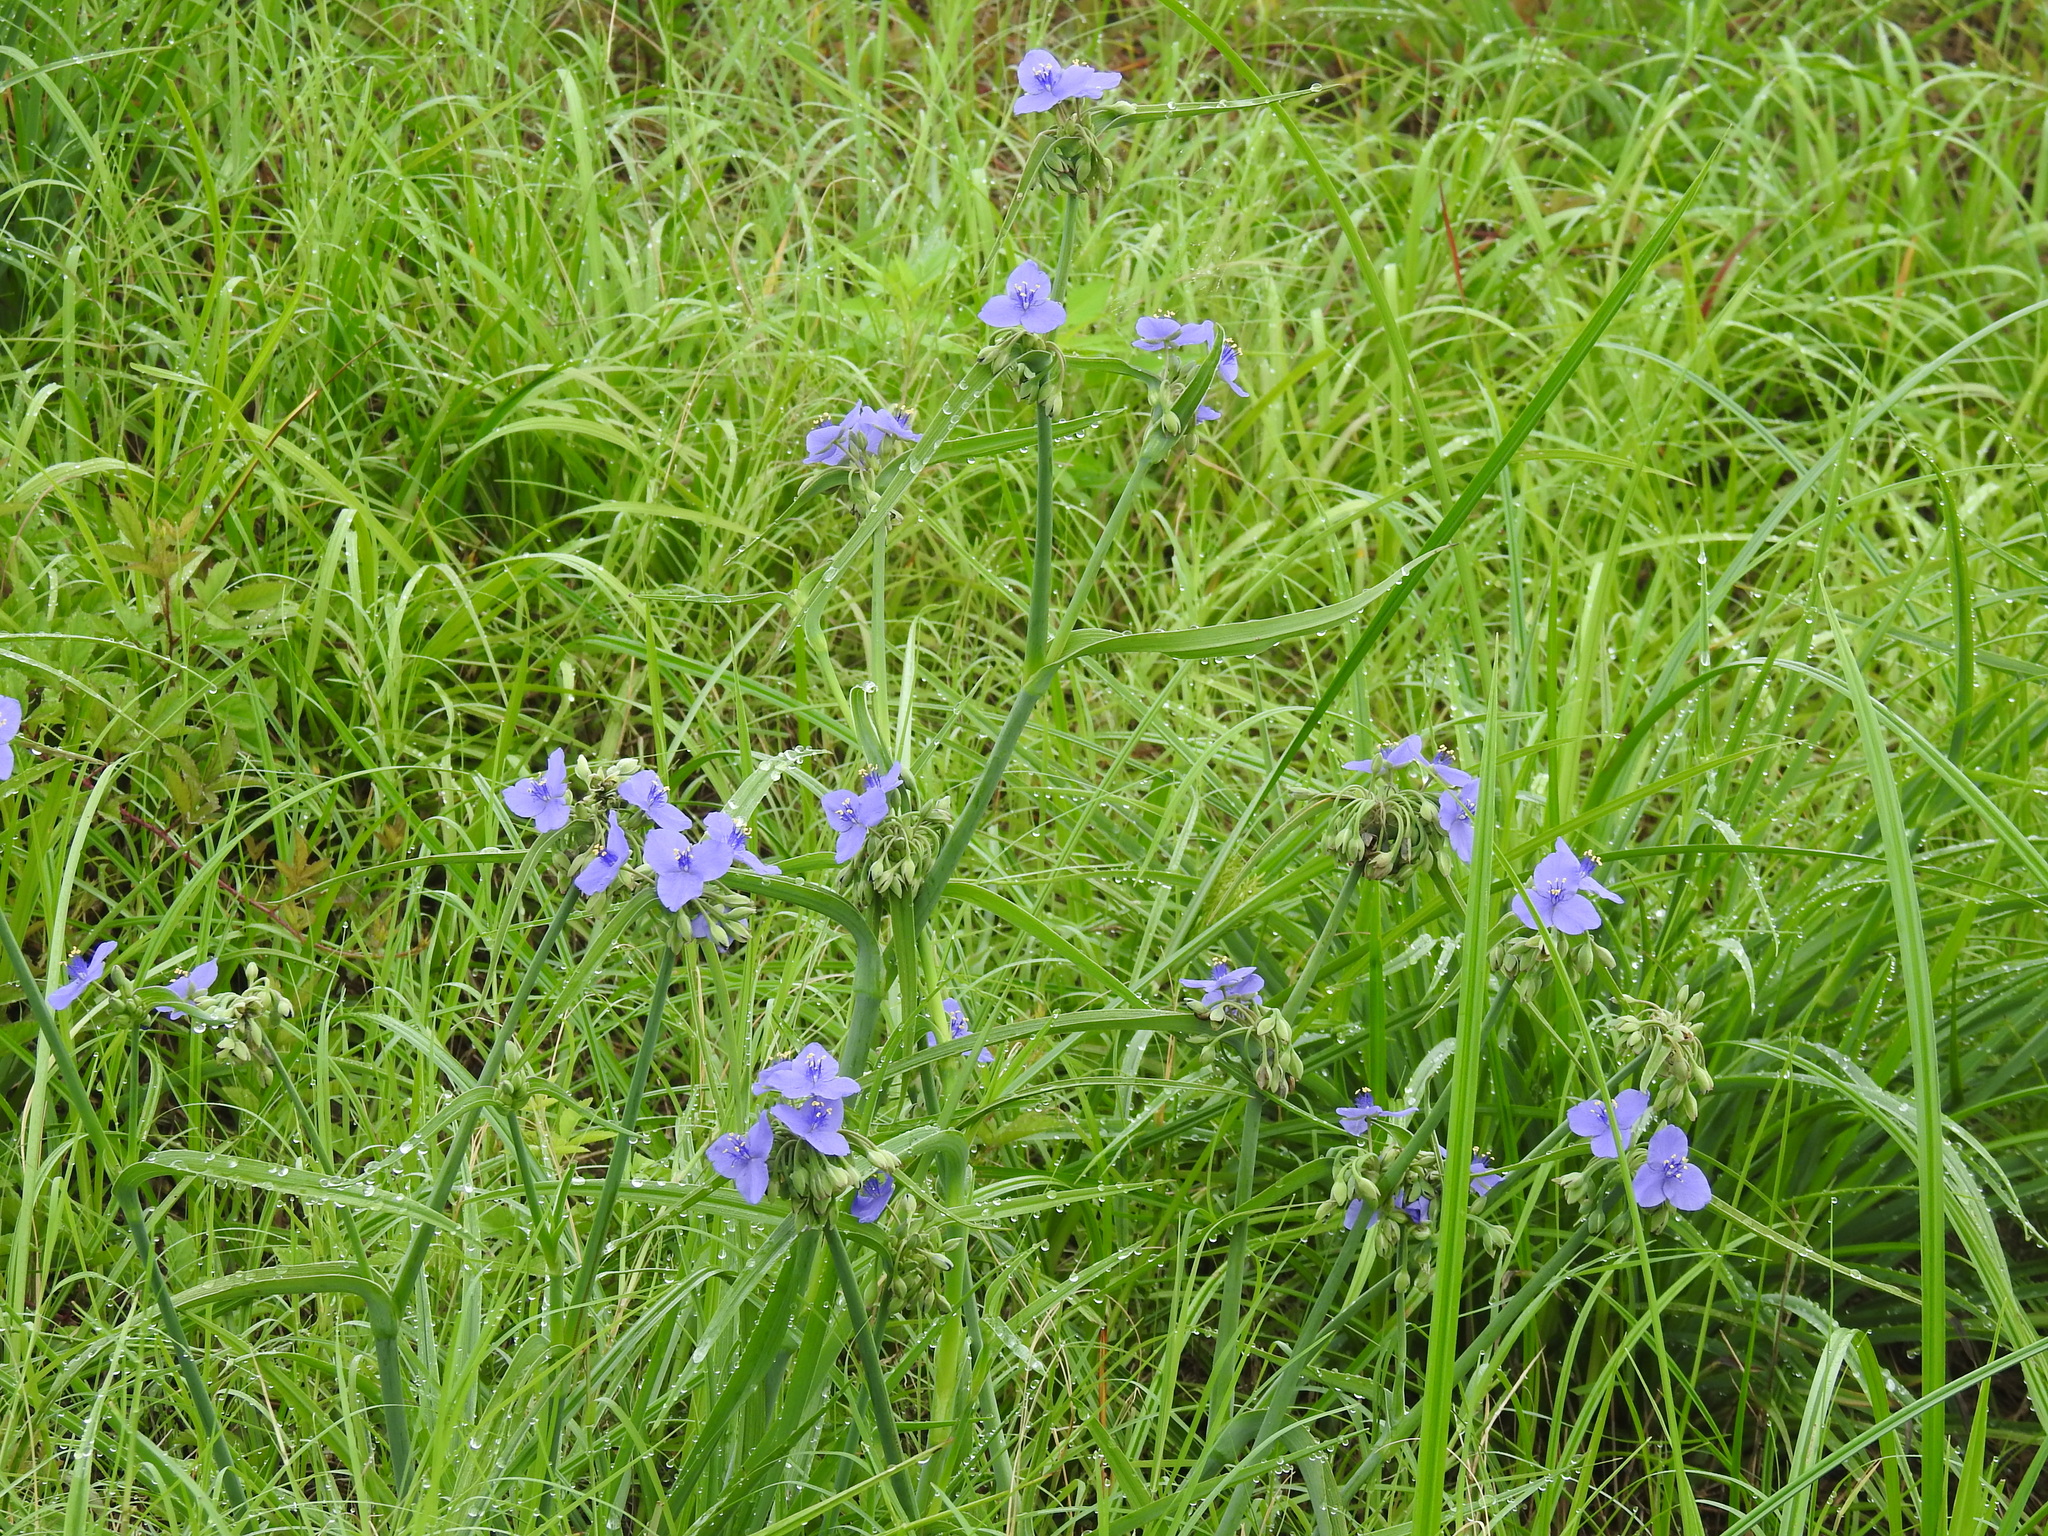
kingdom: Plantae
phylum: Tracheophyta
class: Liliopsida
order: Commelinales
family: Commelinaceae
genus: Tradescantia
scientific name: Tradescantia ohiensis
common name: Ohio spiderwort
